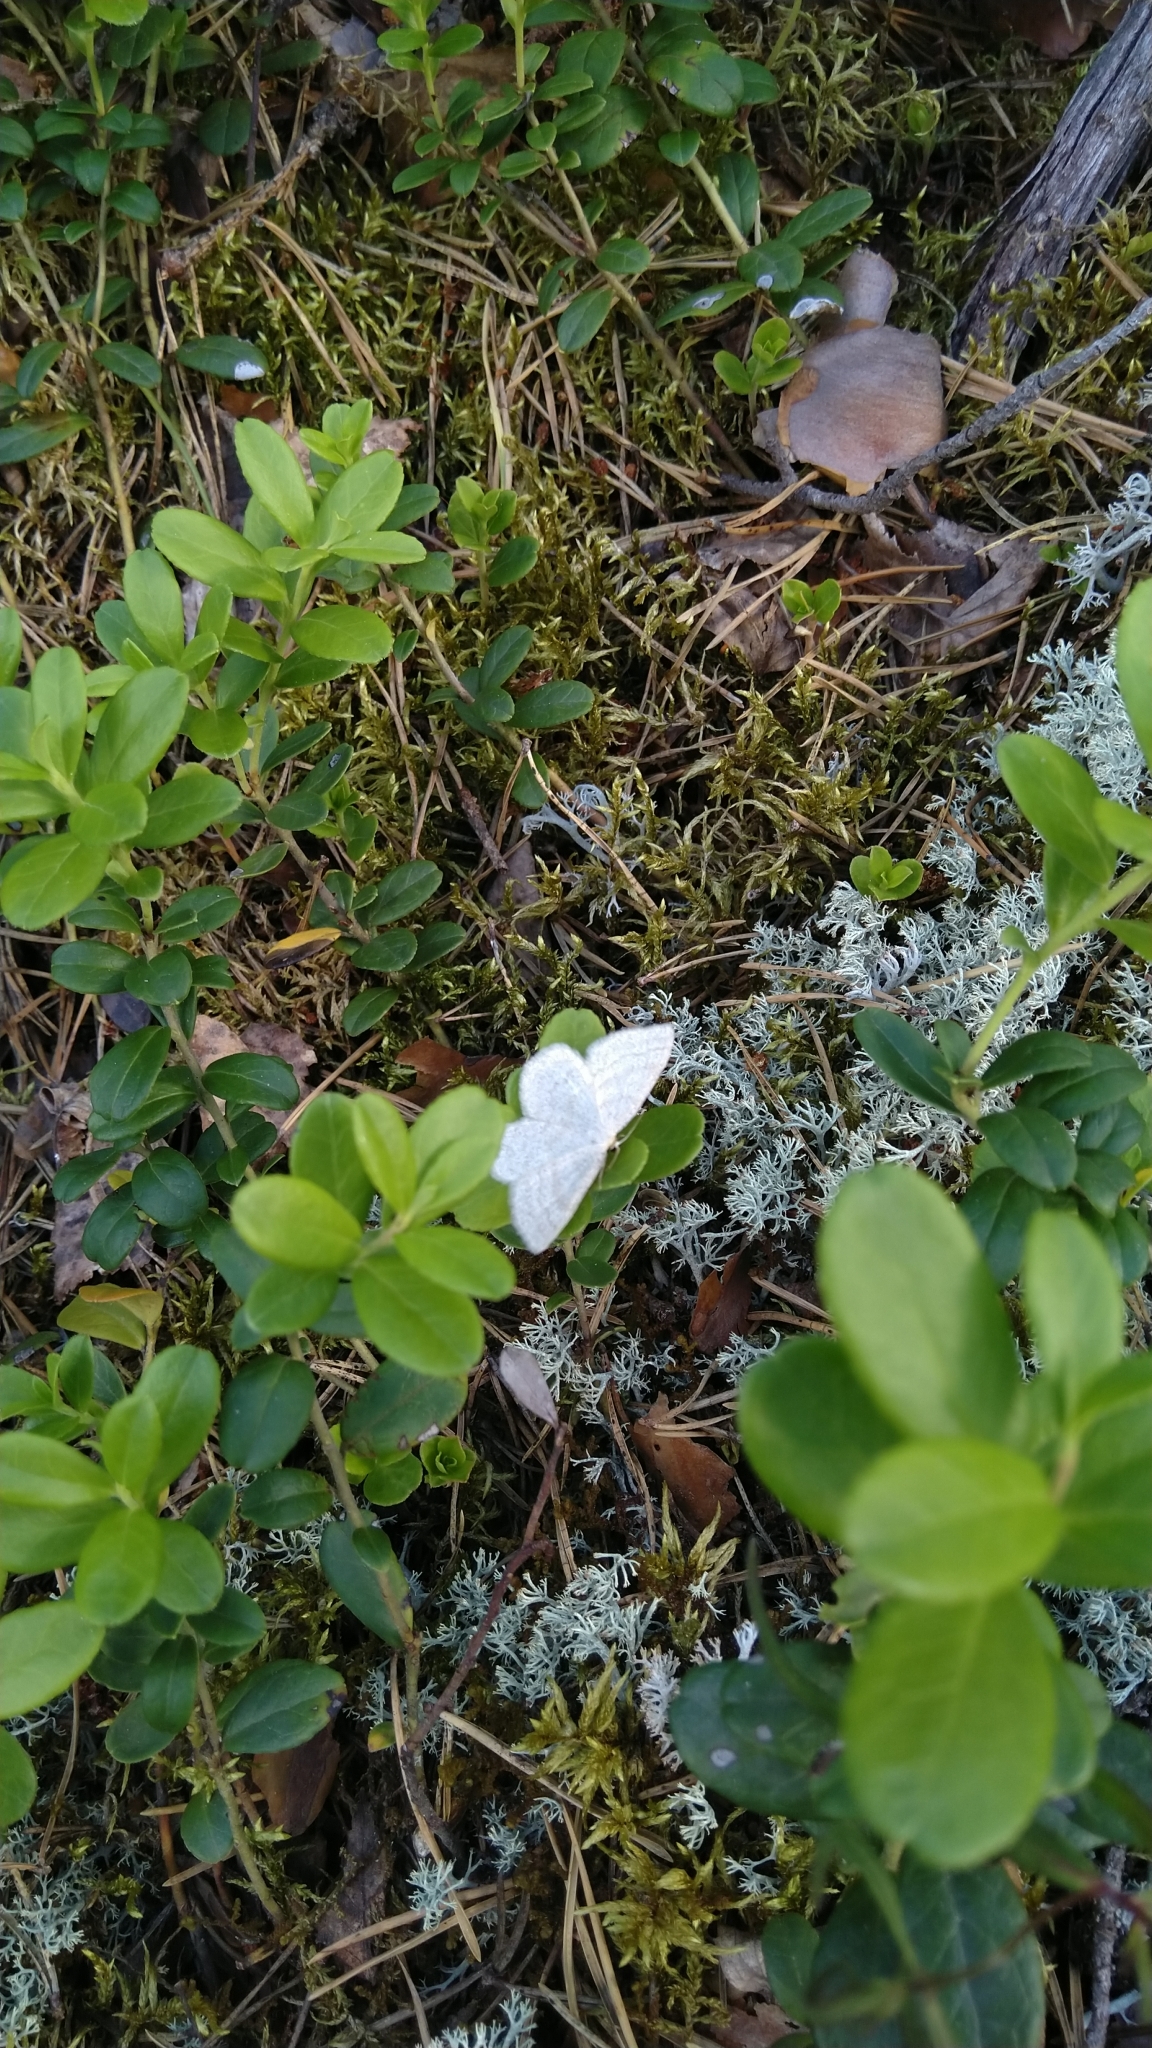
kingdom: Animalia
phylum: Arthropoda
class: Insecta
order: Lepidoptera
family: Geometridae
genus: Scopula
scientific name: Scopula ternata
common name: Smoky wave
